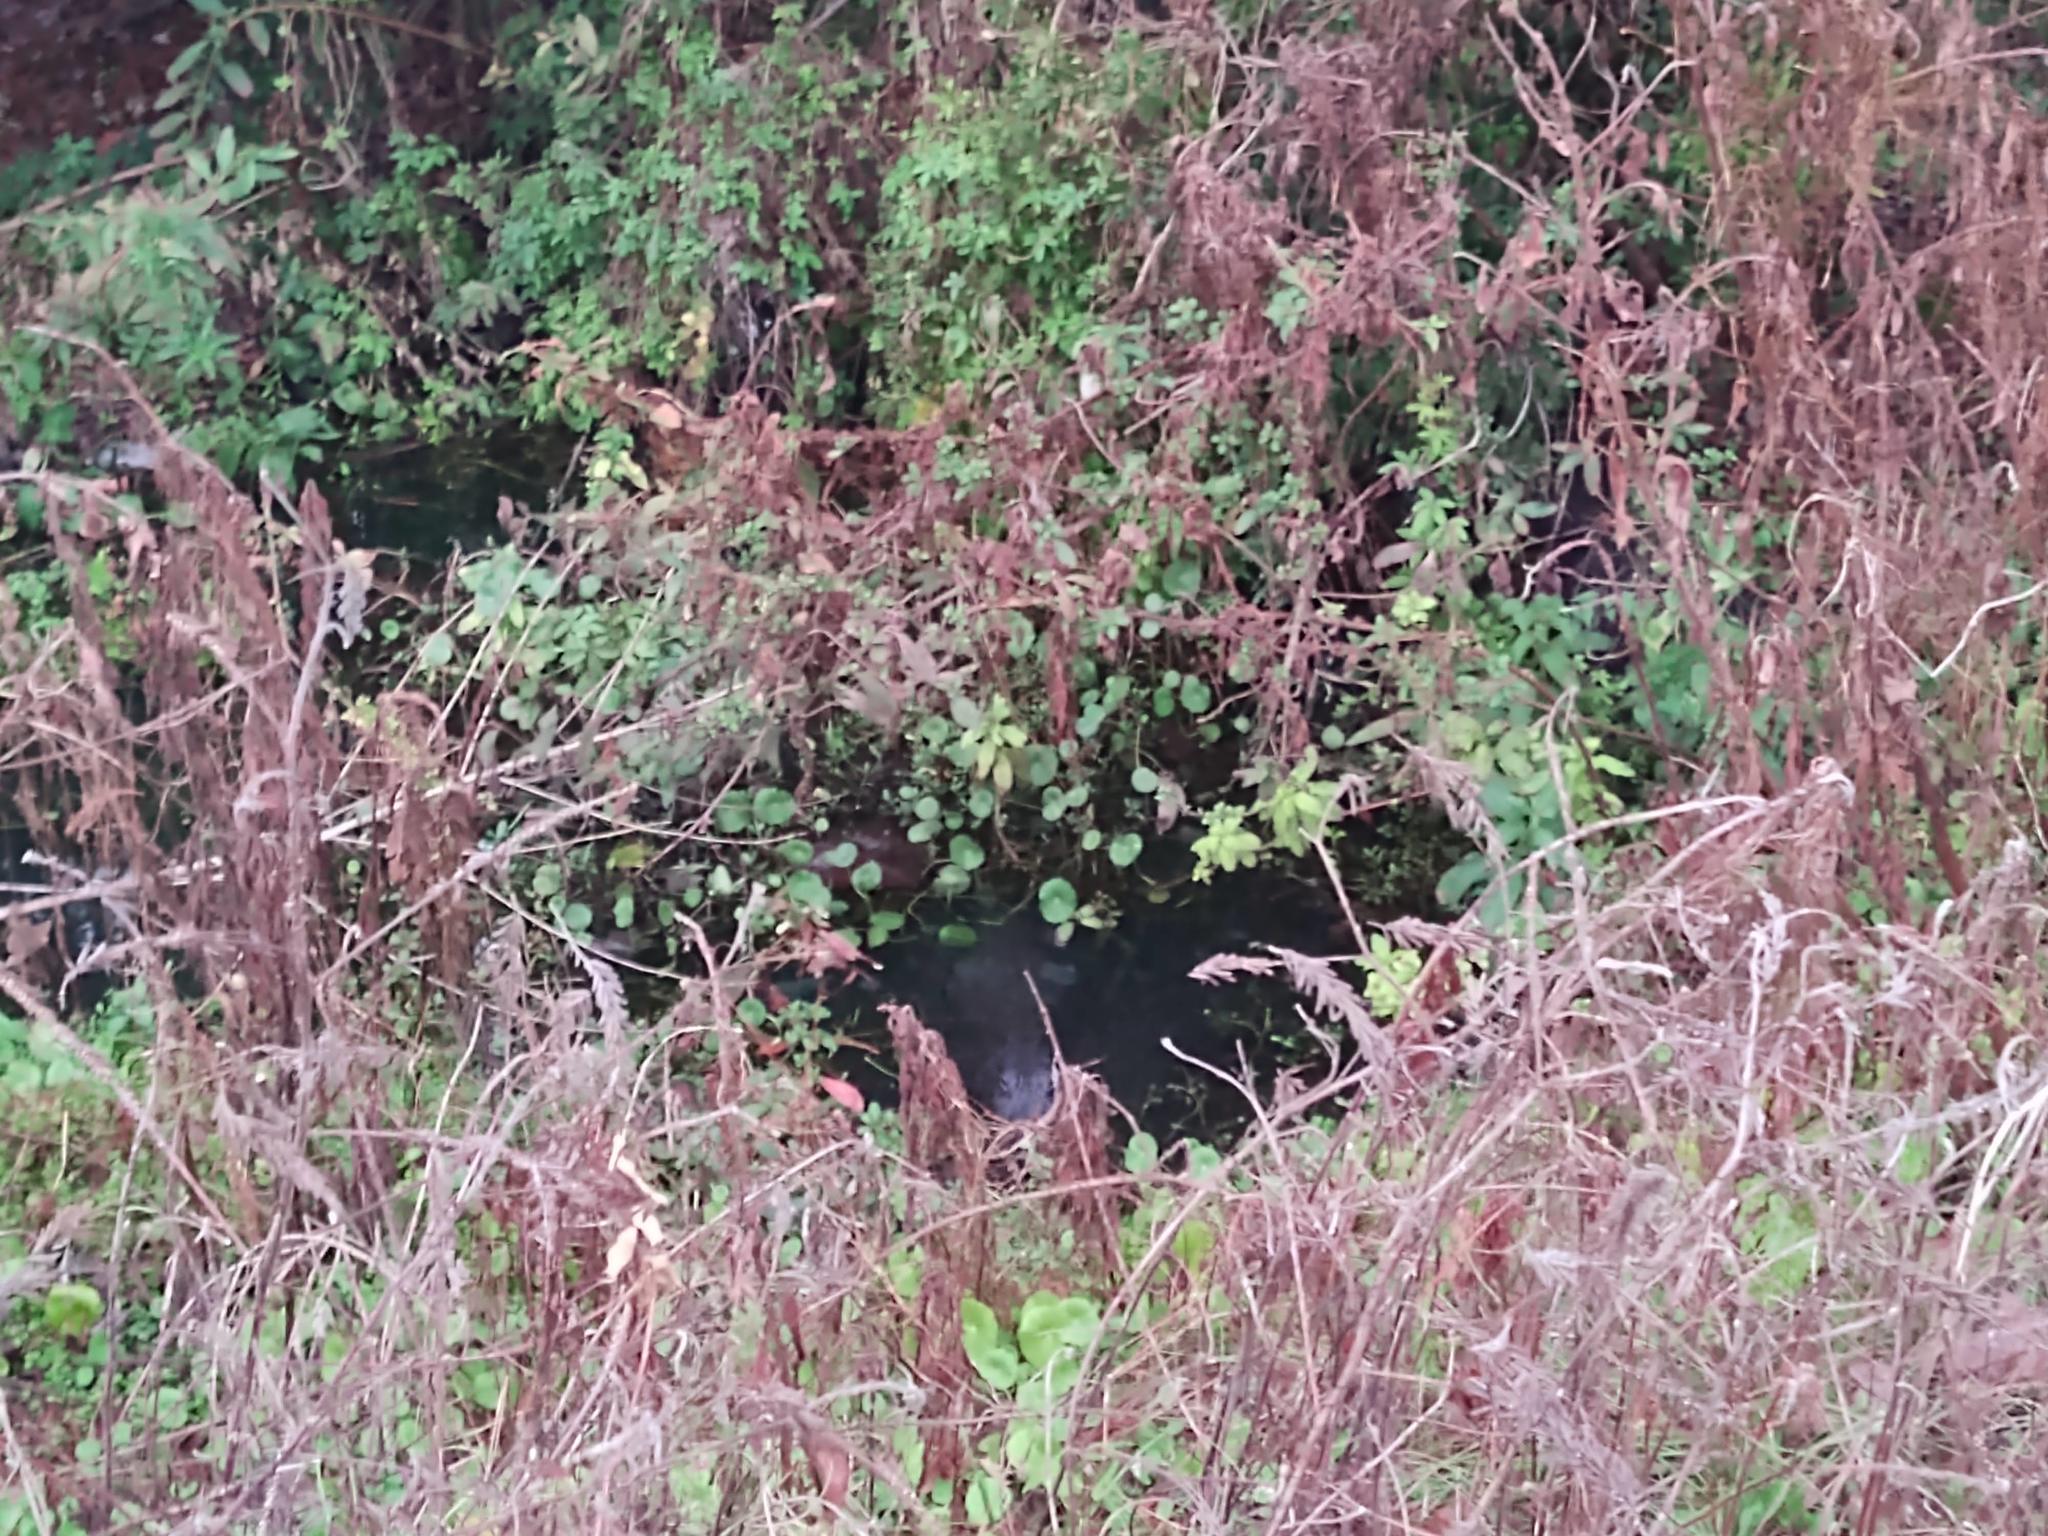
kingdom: Animalia
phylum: Chordata
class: Crocodylia
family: Alligatoridae
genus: Alligator
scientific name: Alligator mississippiensis
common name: American alligator
